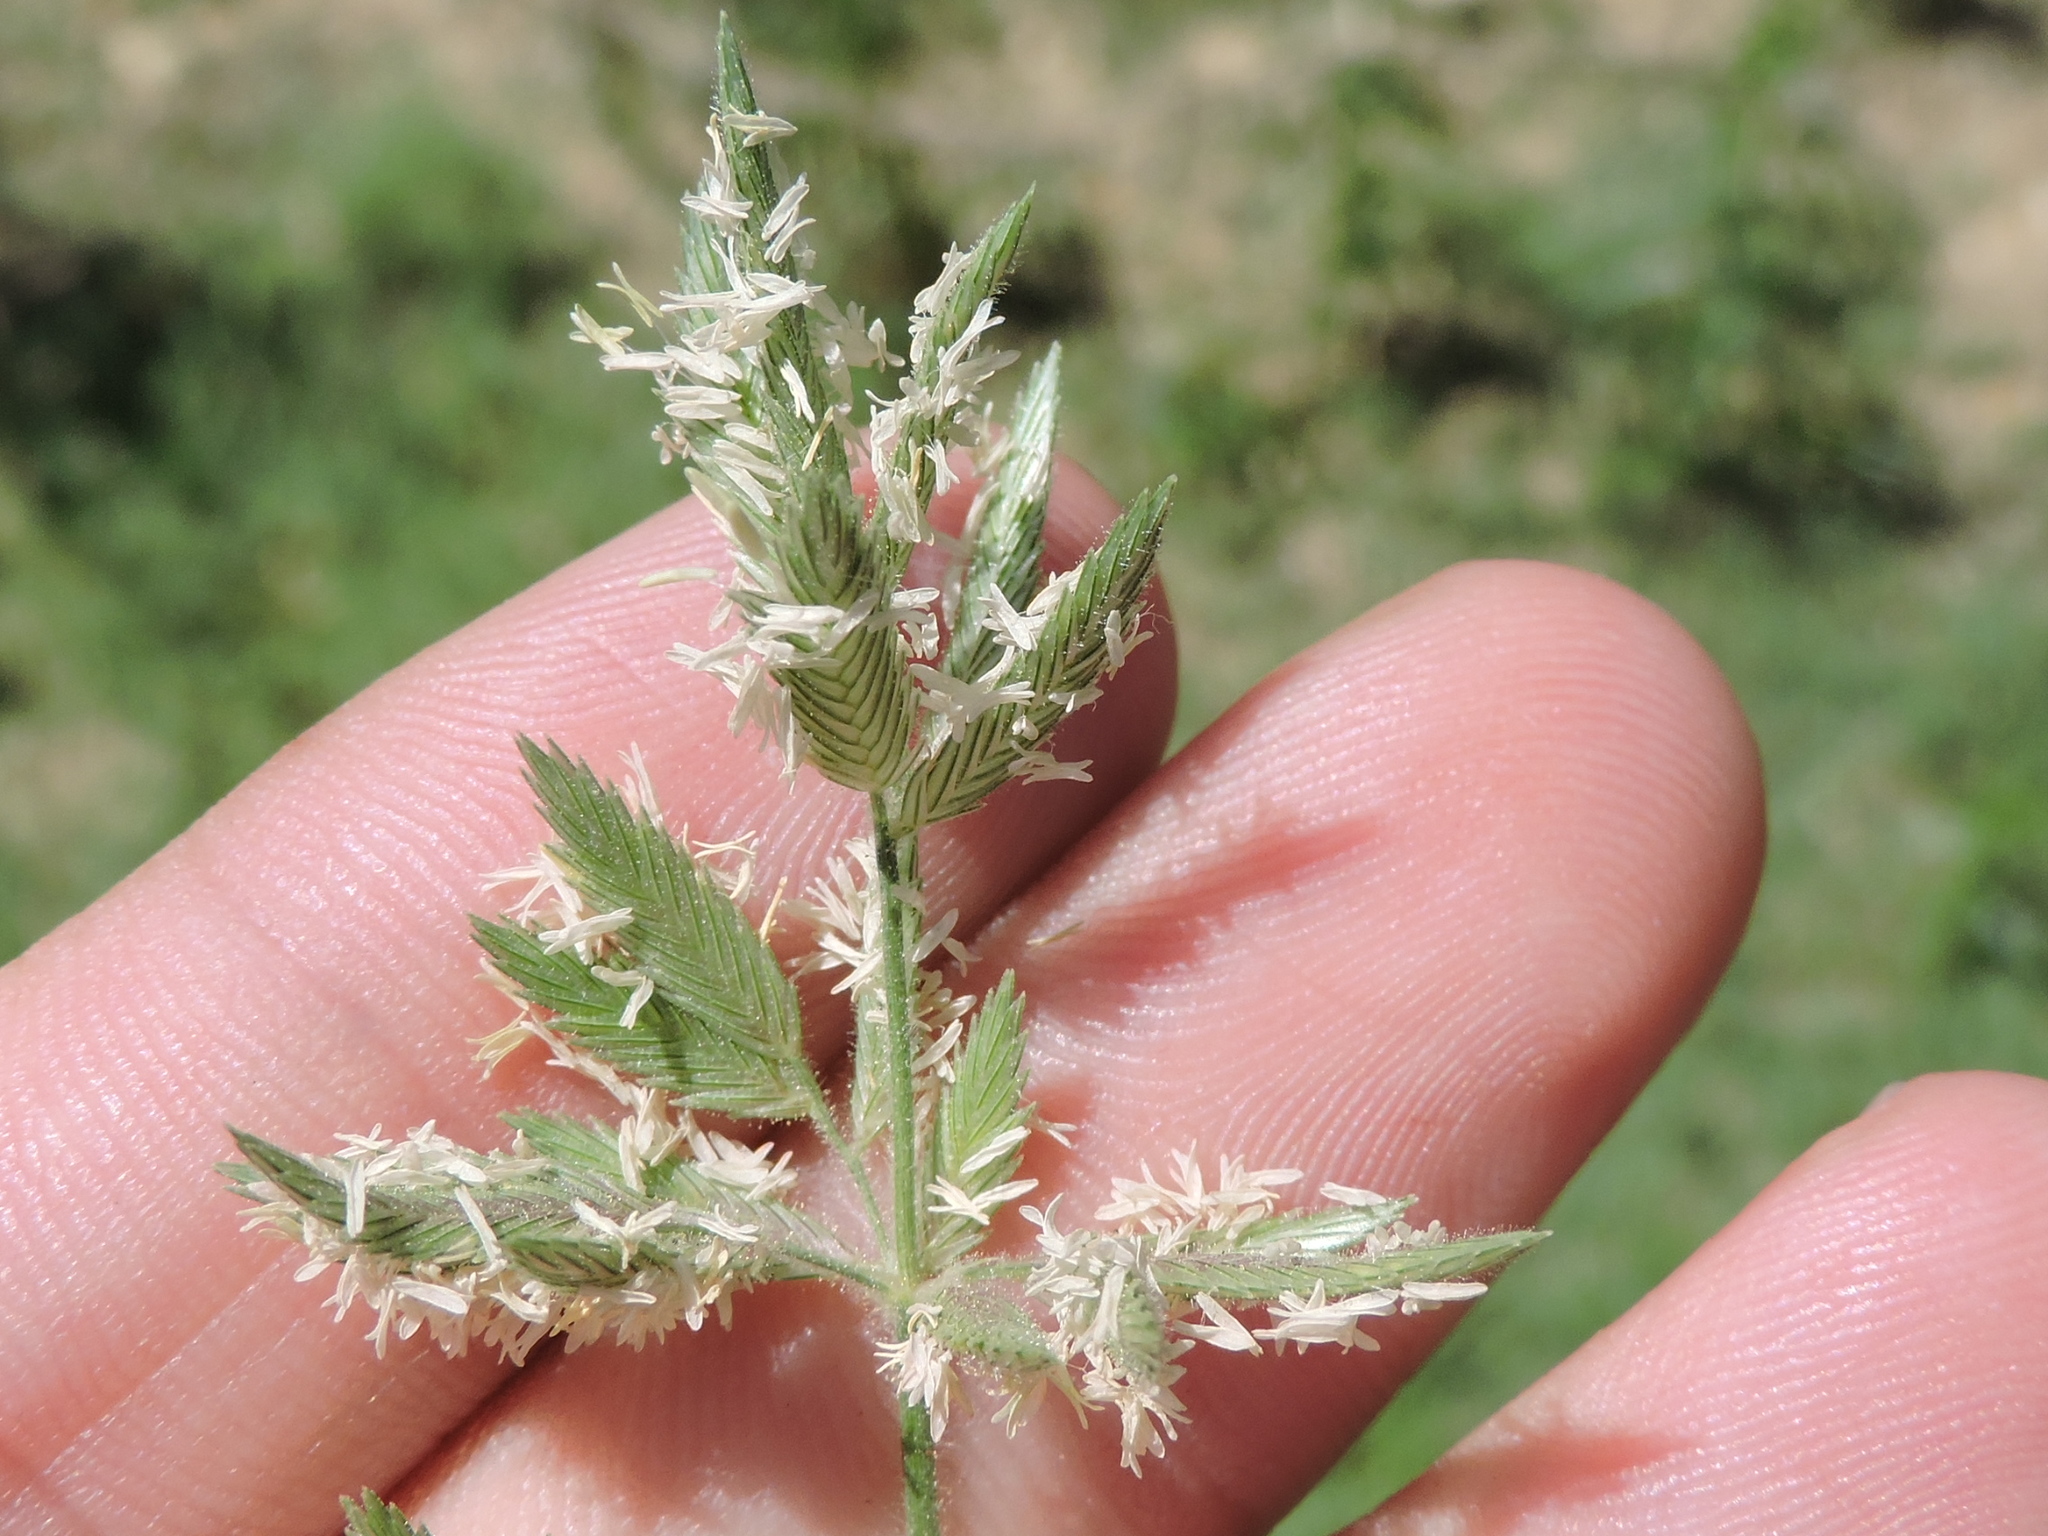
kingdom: Plantae
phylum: Tracheophyta
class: Liliopsida
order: Poales
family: Poaceae
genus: Eragrostis
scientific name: Eragrostis reptans
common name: Creeping love grass
